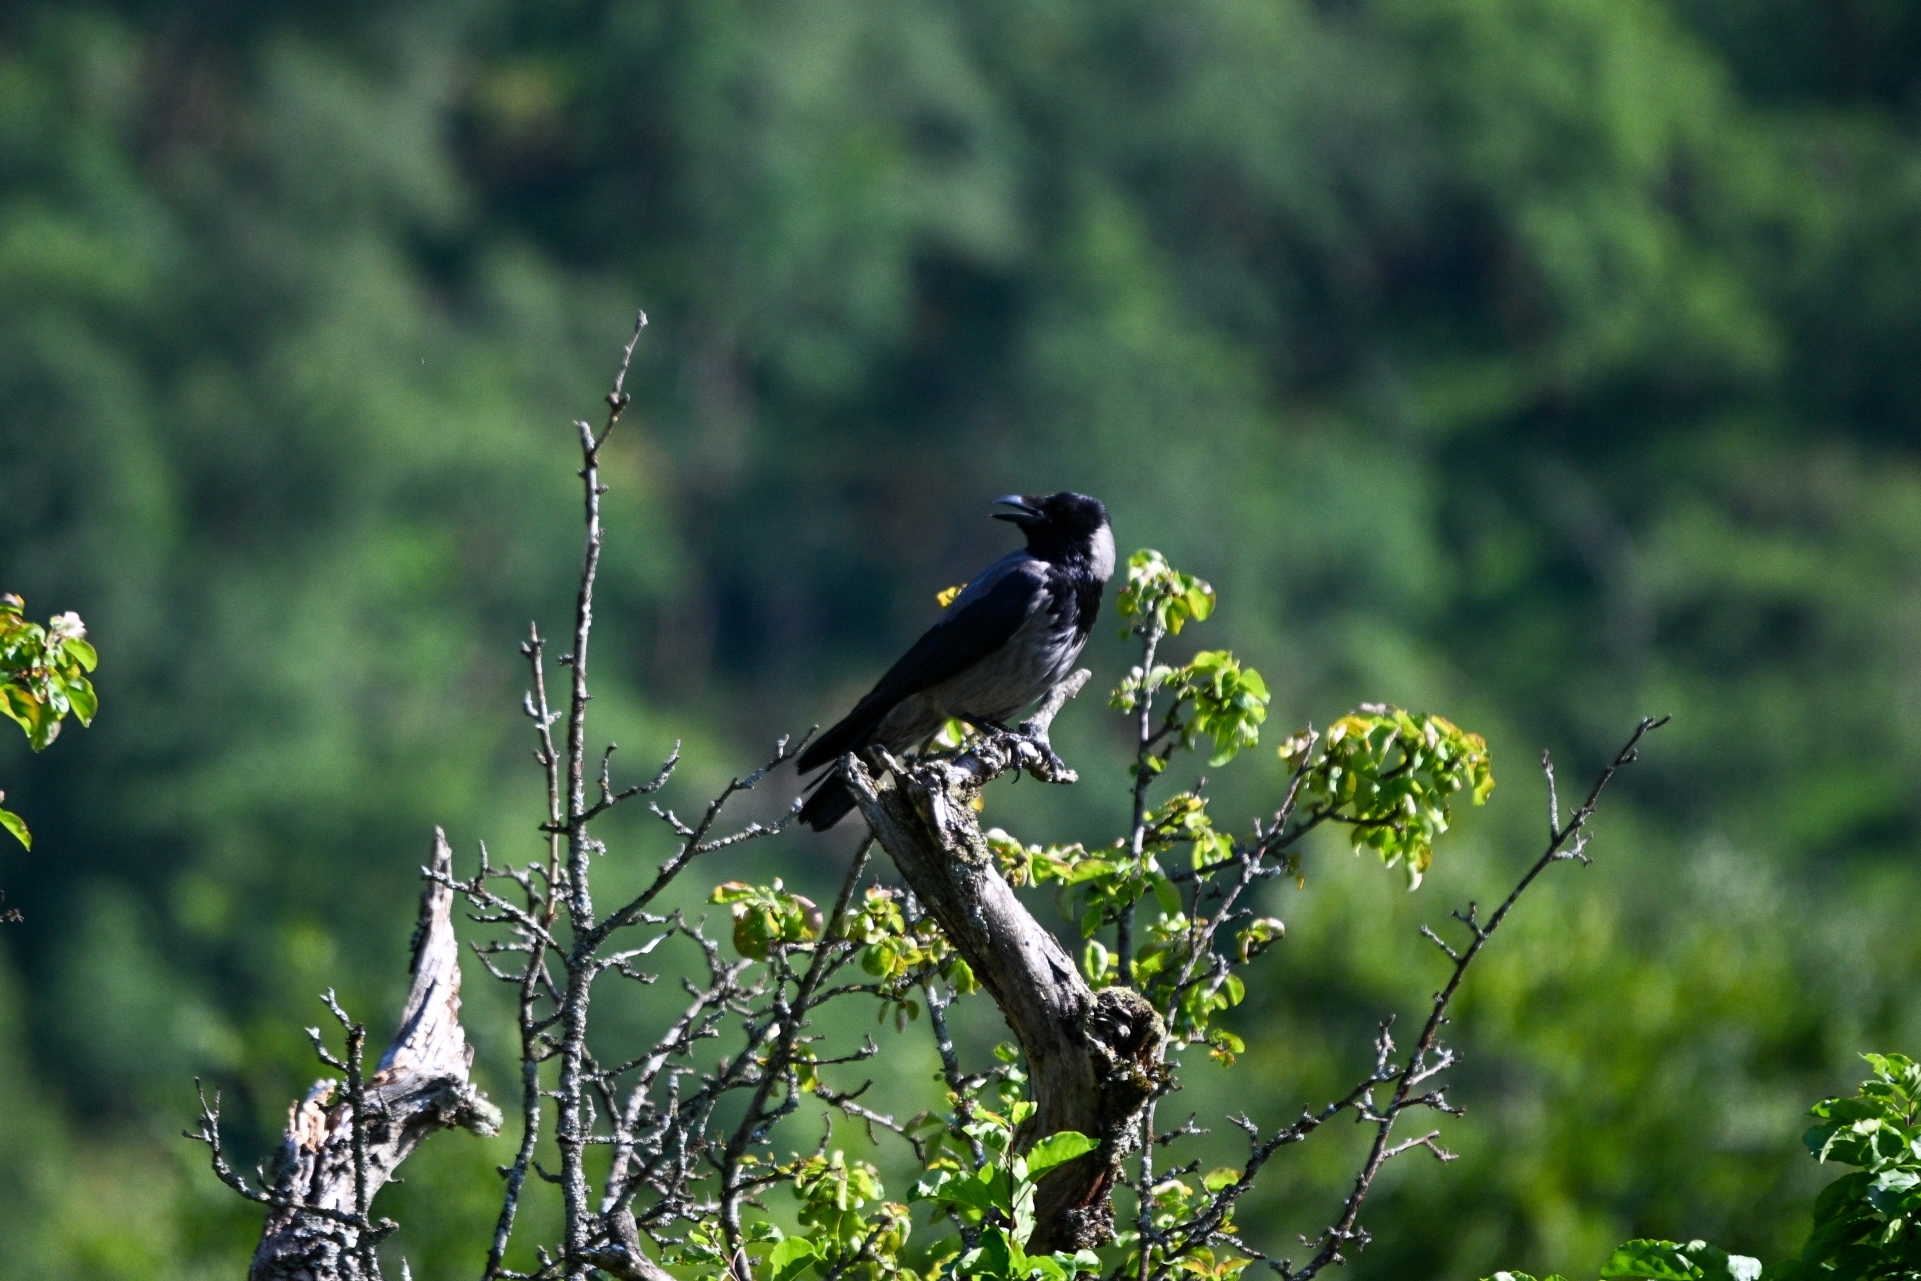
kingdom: Animalia
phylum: Chordata
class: Aves
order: Passeriformes
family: Corvidae
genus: Corvus
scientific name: Corvus cornix
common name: Hooded crow
